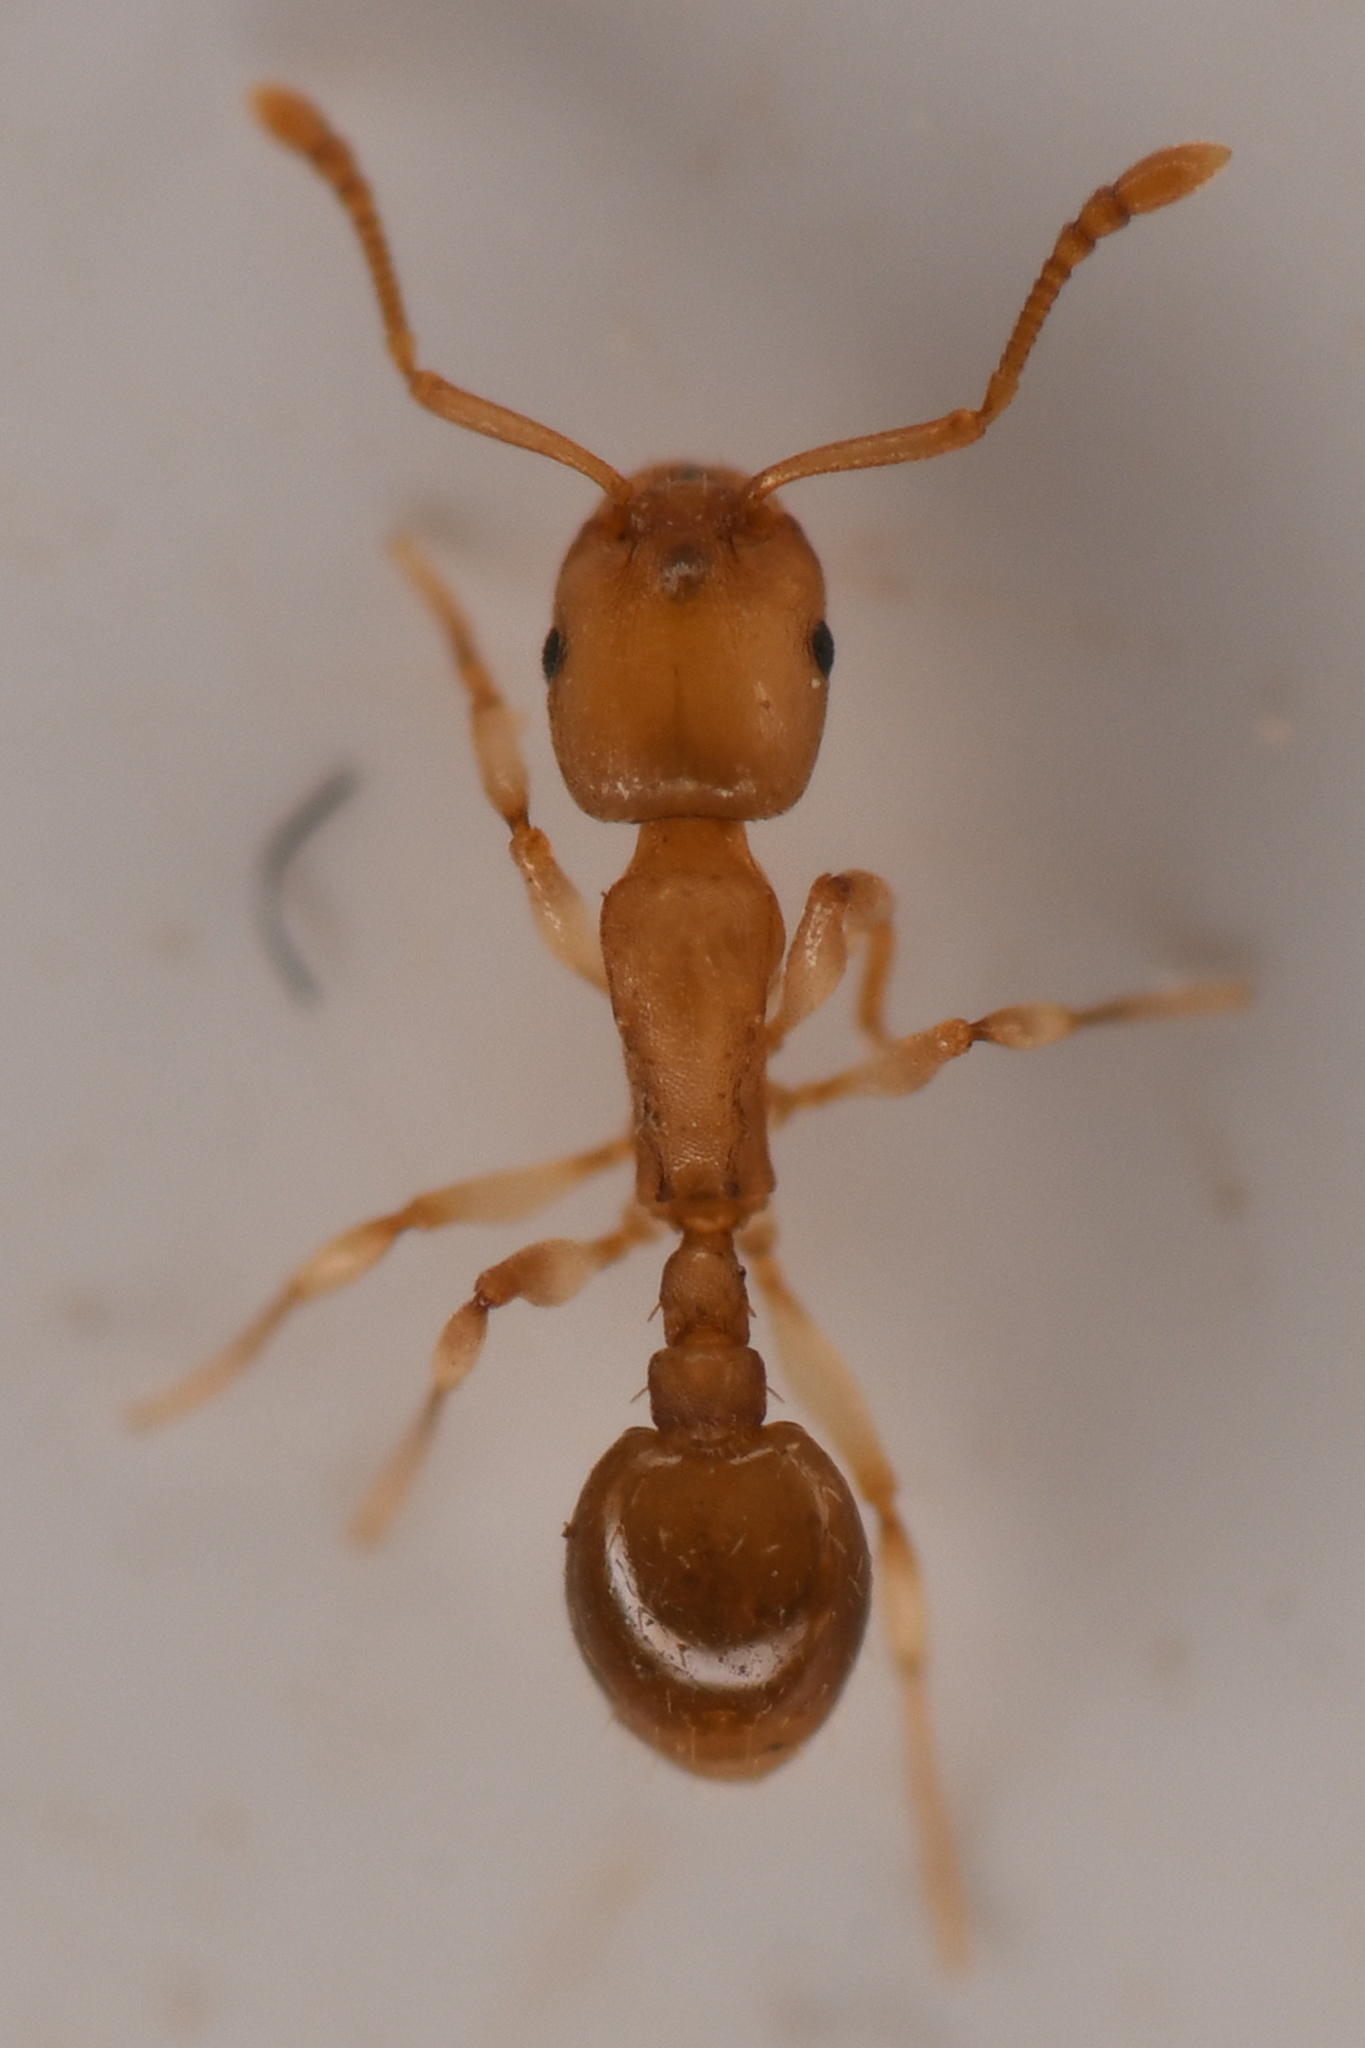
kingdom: Animalia
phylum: Arthropoda
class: Insecta
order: Hymenoptera
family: Formicidae
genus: Temnothorax
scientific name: Temnothorax andrei
